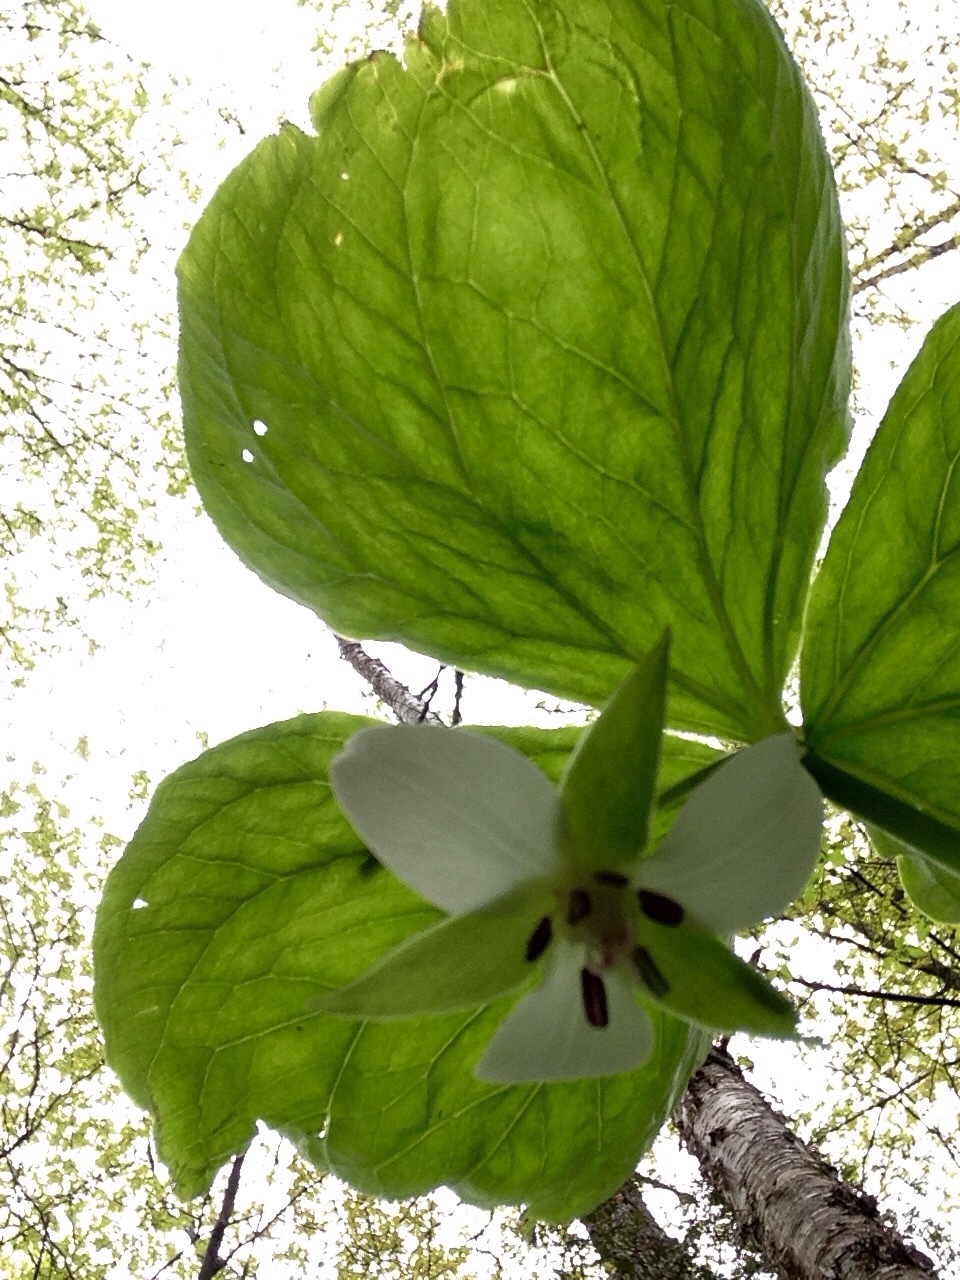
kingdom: Plantae
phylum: Tracheophyta
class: Liliopsida
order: Liliales
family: Melanthiaceae
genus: Trillium
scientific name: Trillium cernuum
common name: Nodding trillium
